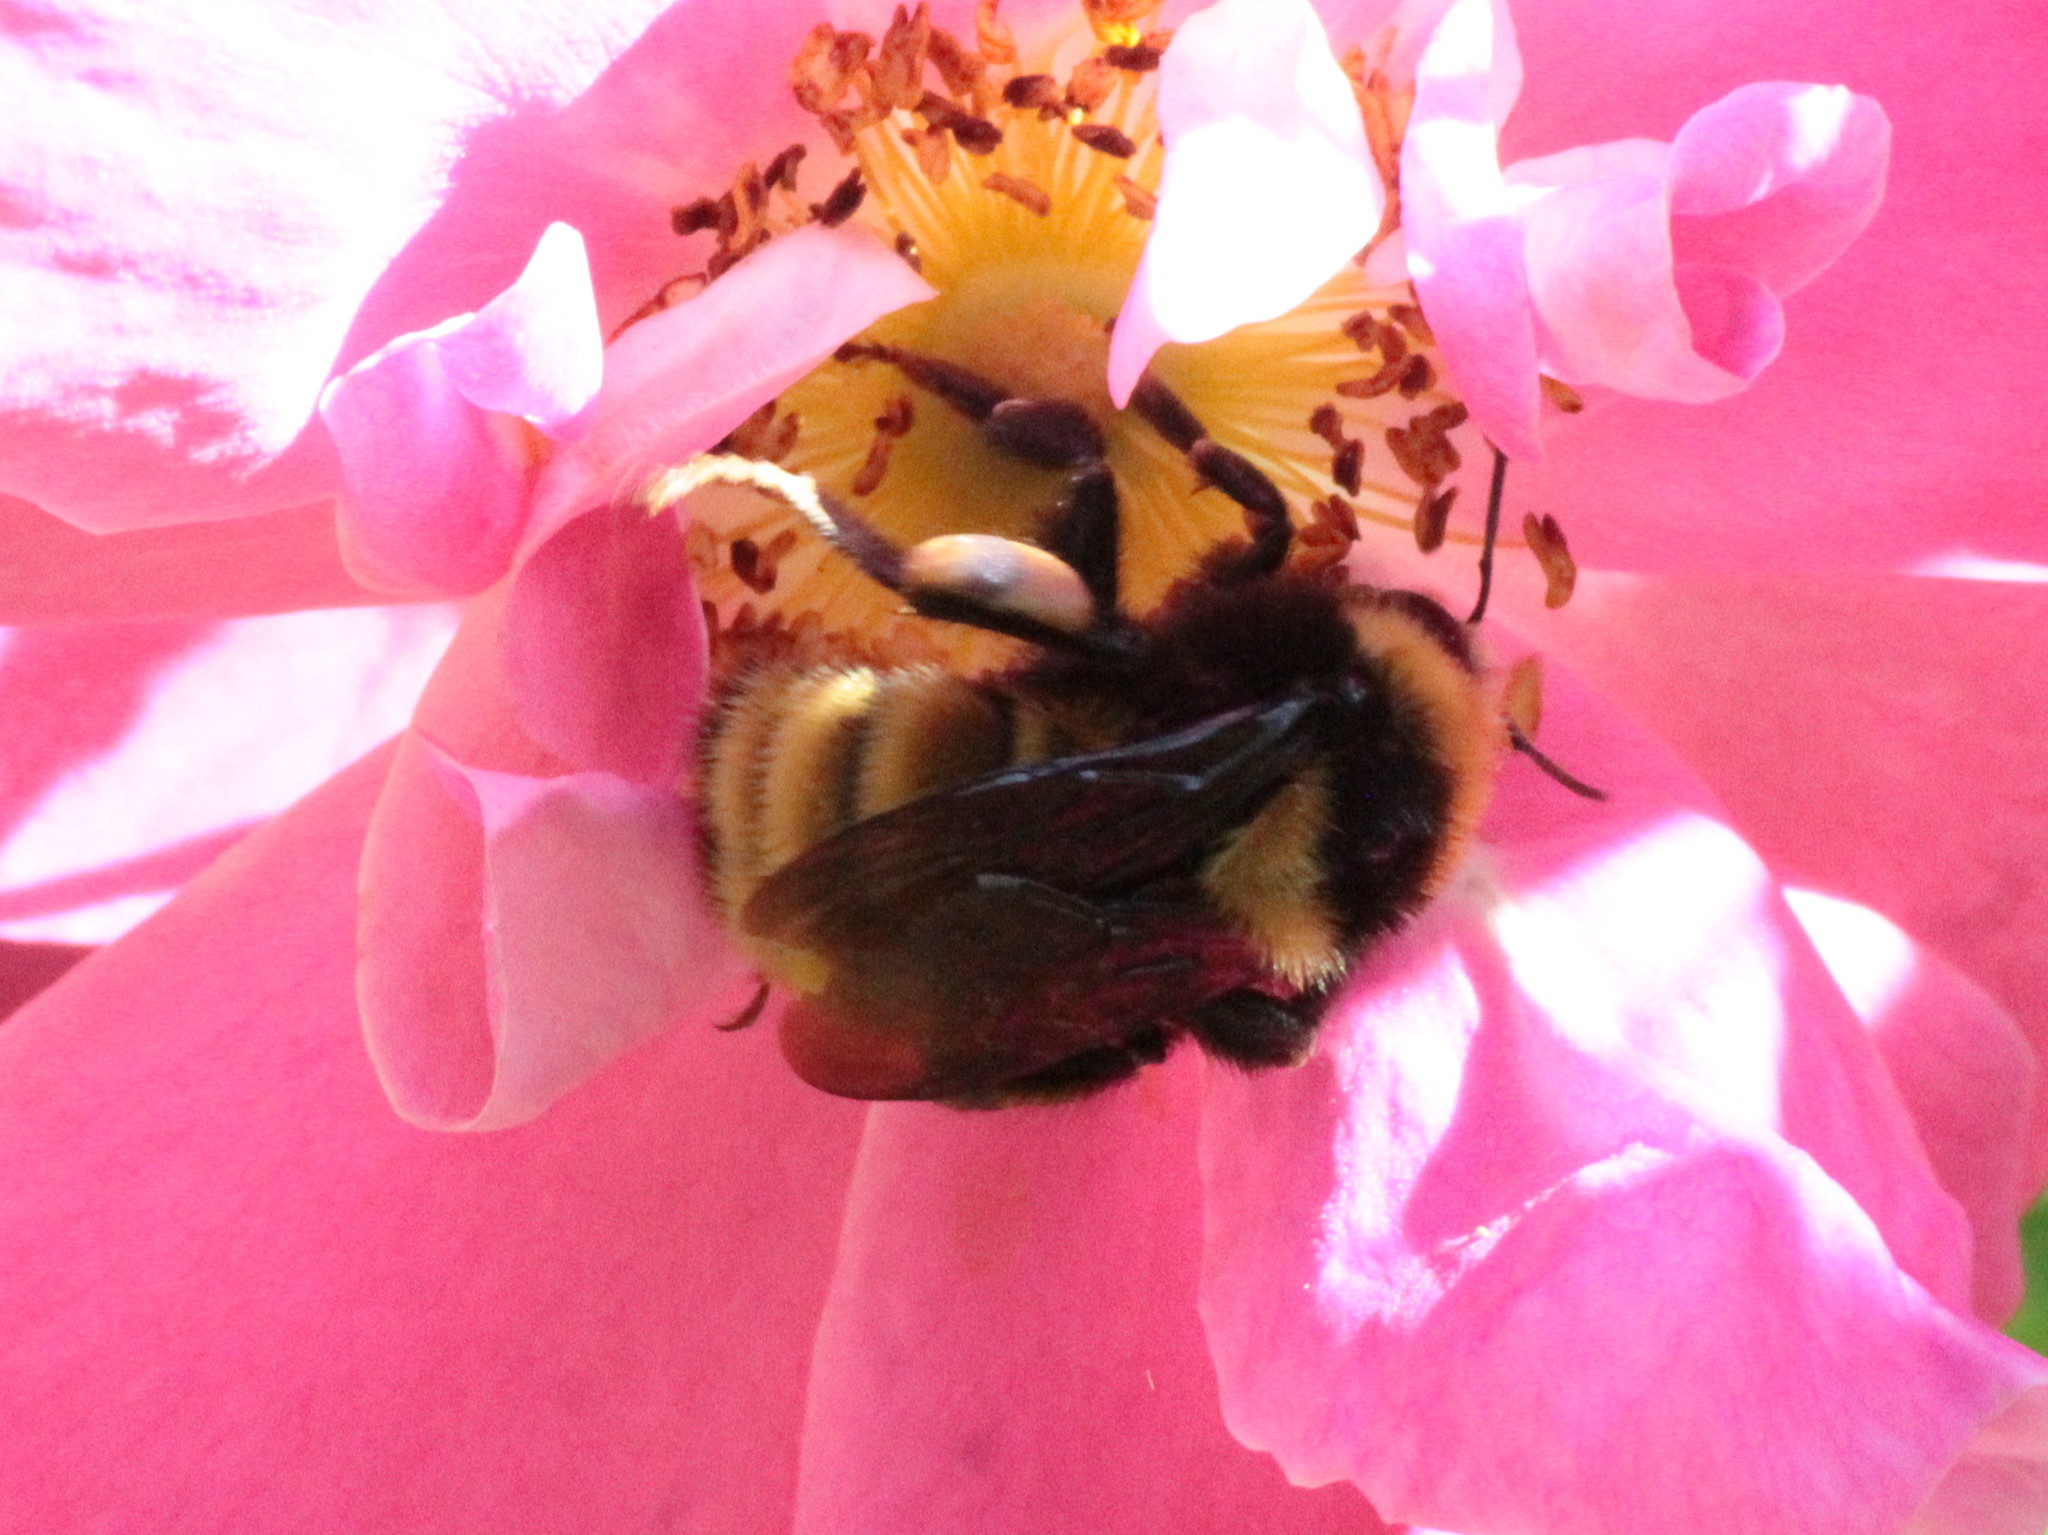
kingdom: Animalia
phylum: Arthropoda
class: Insecta
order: Hymenoptera
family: Apidae
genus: Bombus
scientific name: Bombus borealis
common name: Northern amber bumble bee
